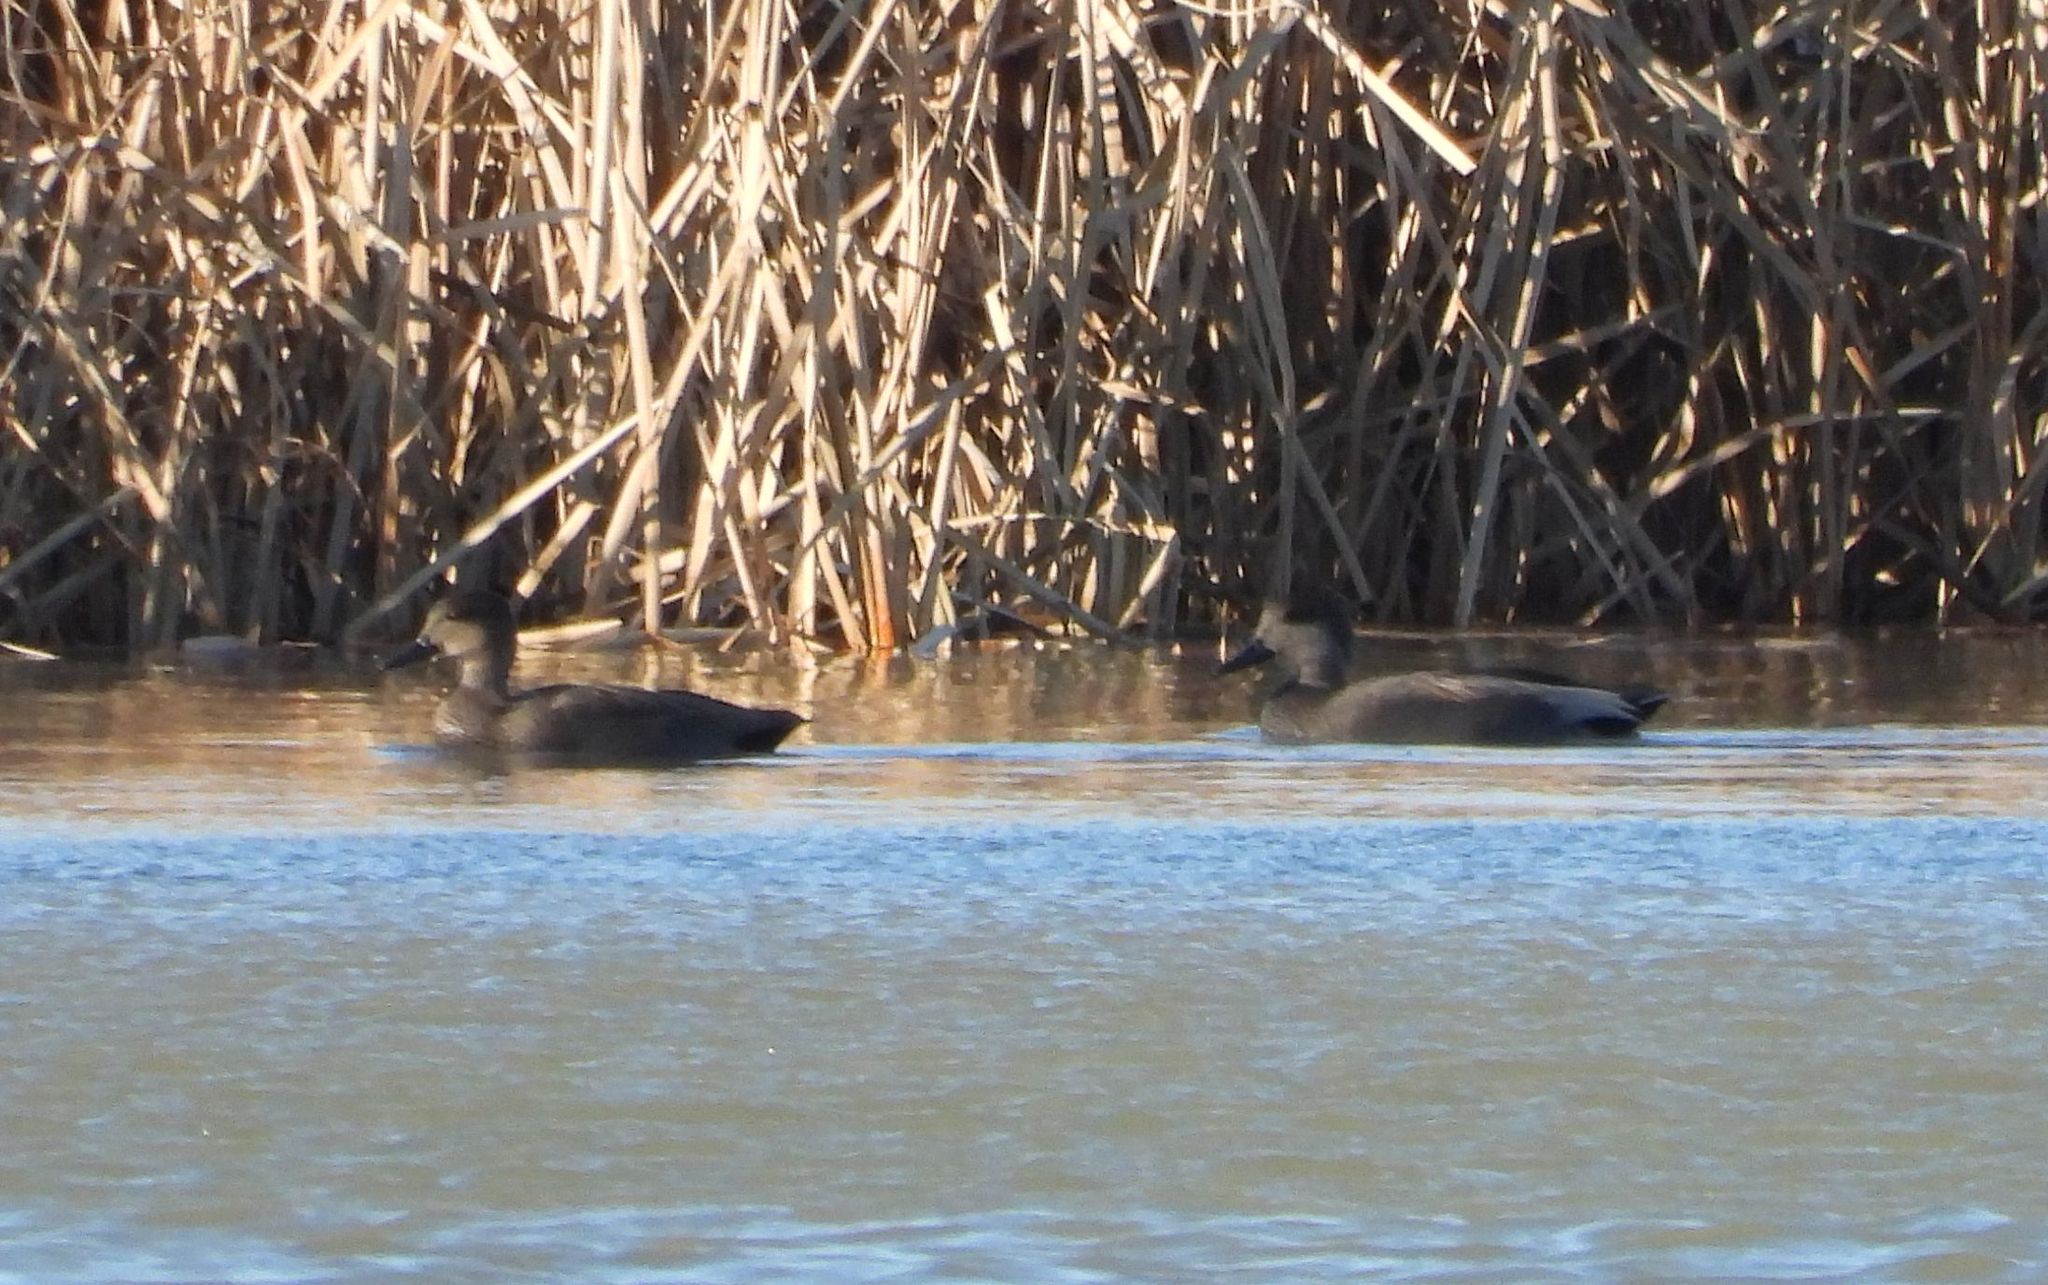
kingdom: Animalia
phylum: Chordata
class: Aves
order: Anseriformes
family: Anatidae
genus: Mareca
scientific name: Mareca strepera
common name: Gadwall
